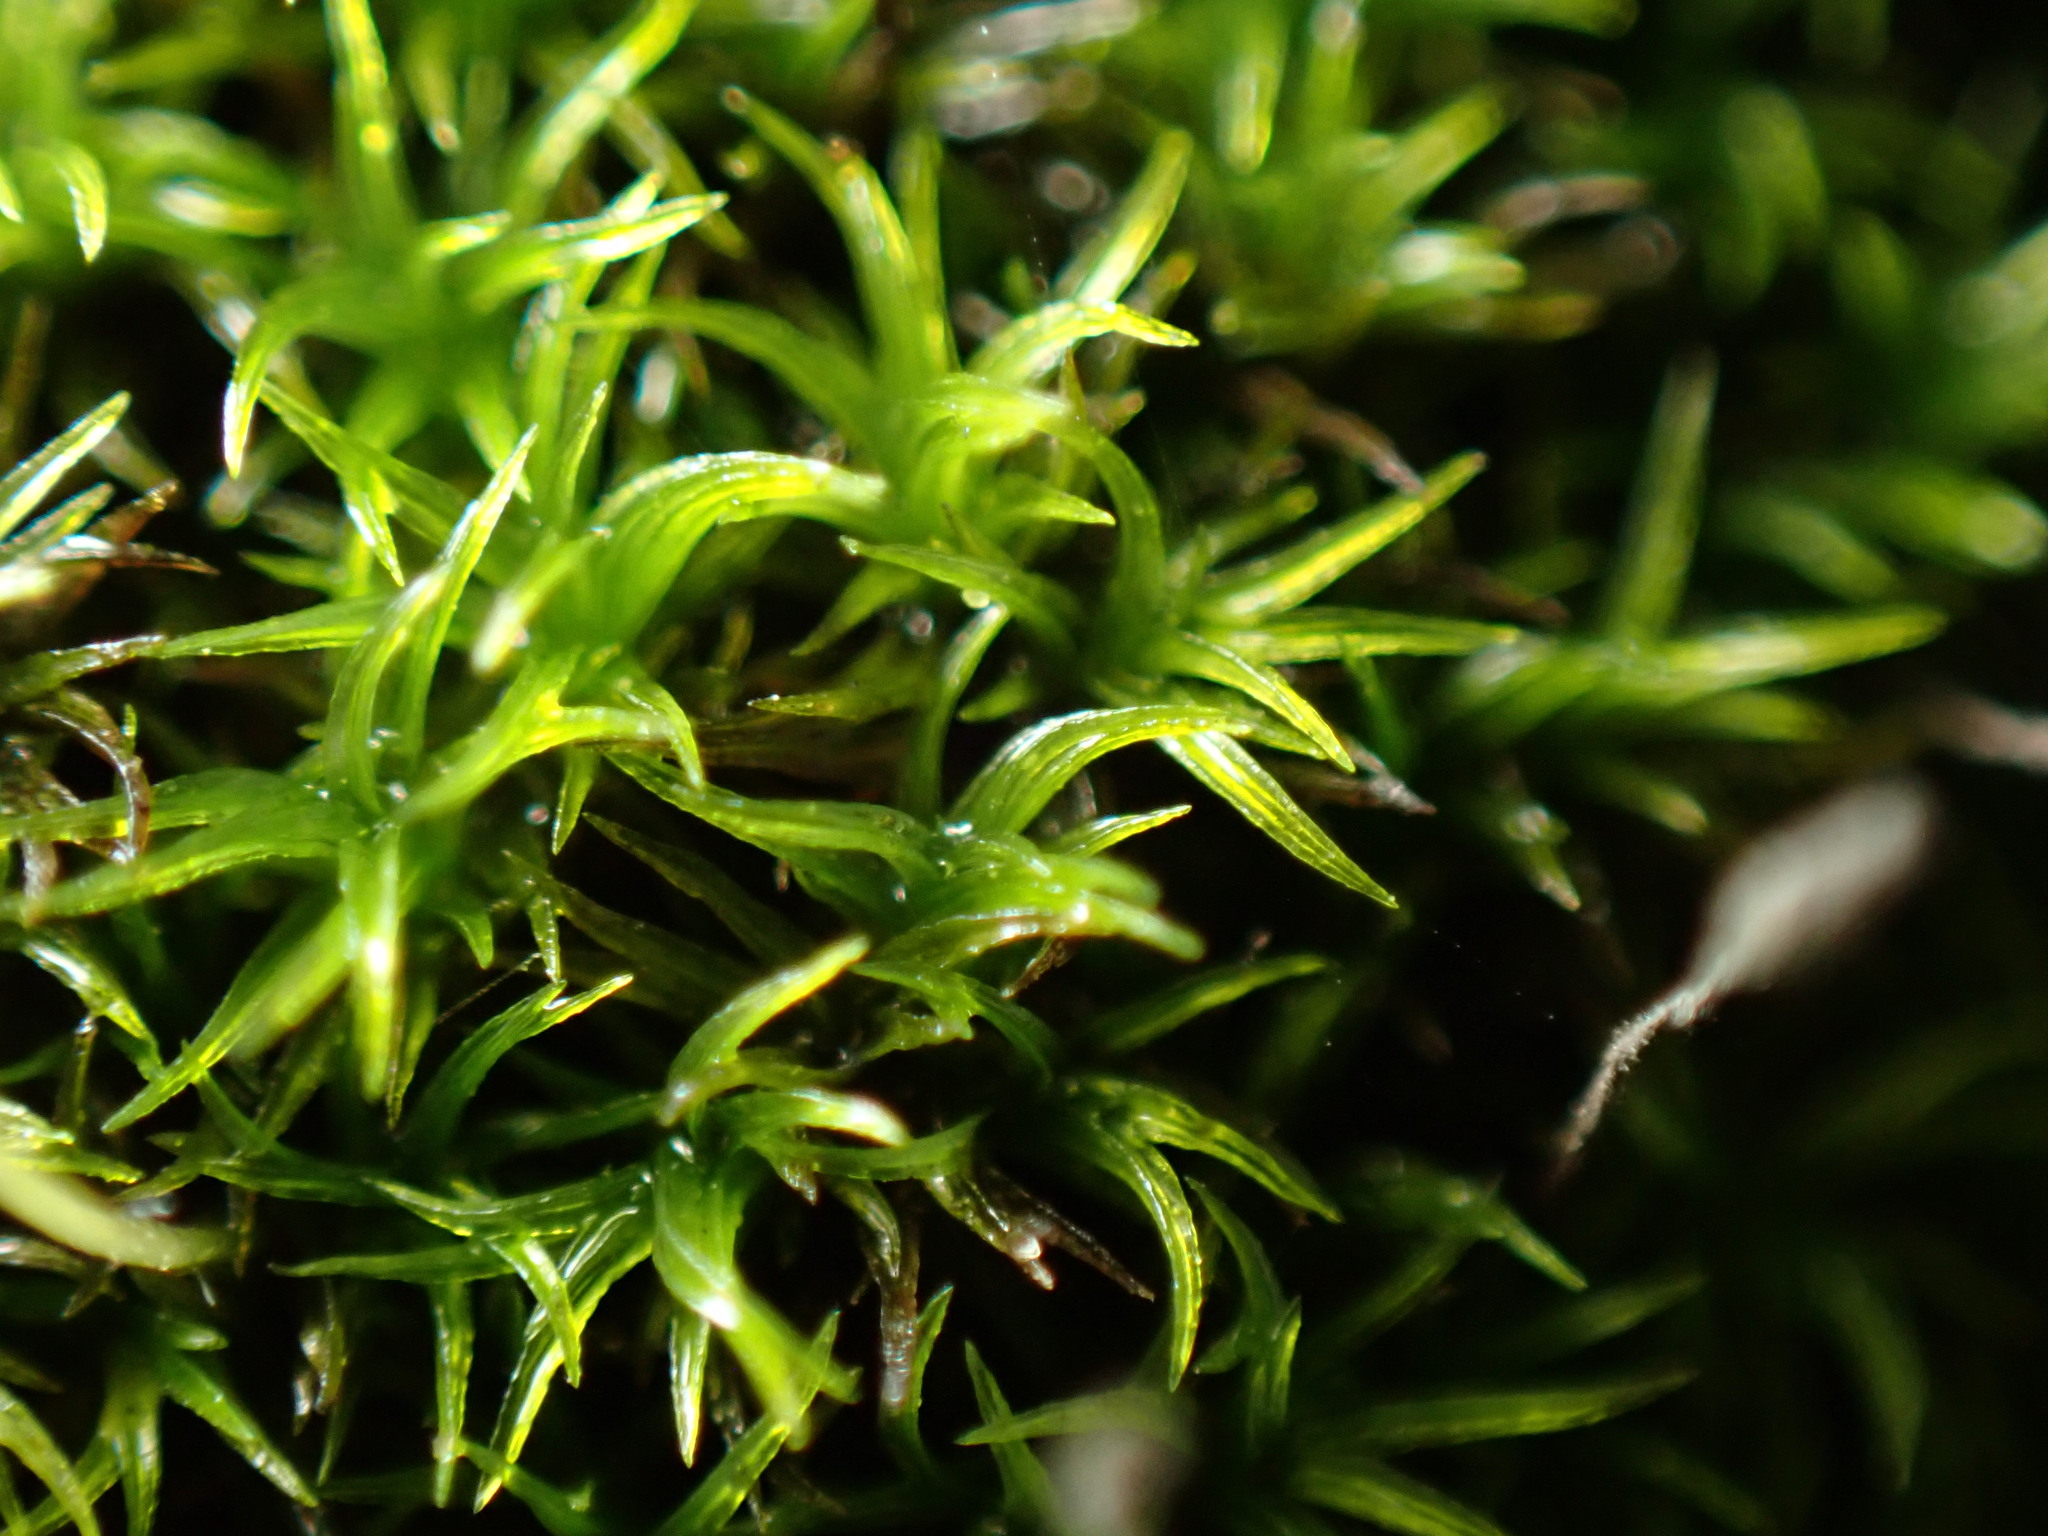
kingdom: Plantae
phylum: Bryophyta
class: Bryopsida
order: Dicranales
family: Rhabdoweisiaceae
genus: Dicranoweisia
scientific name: Dicranoweisia cirrata
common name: Common pincushion
